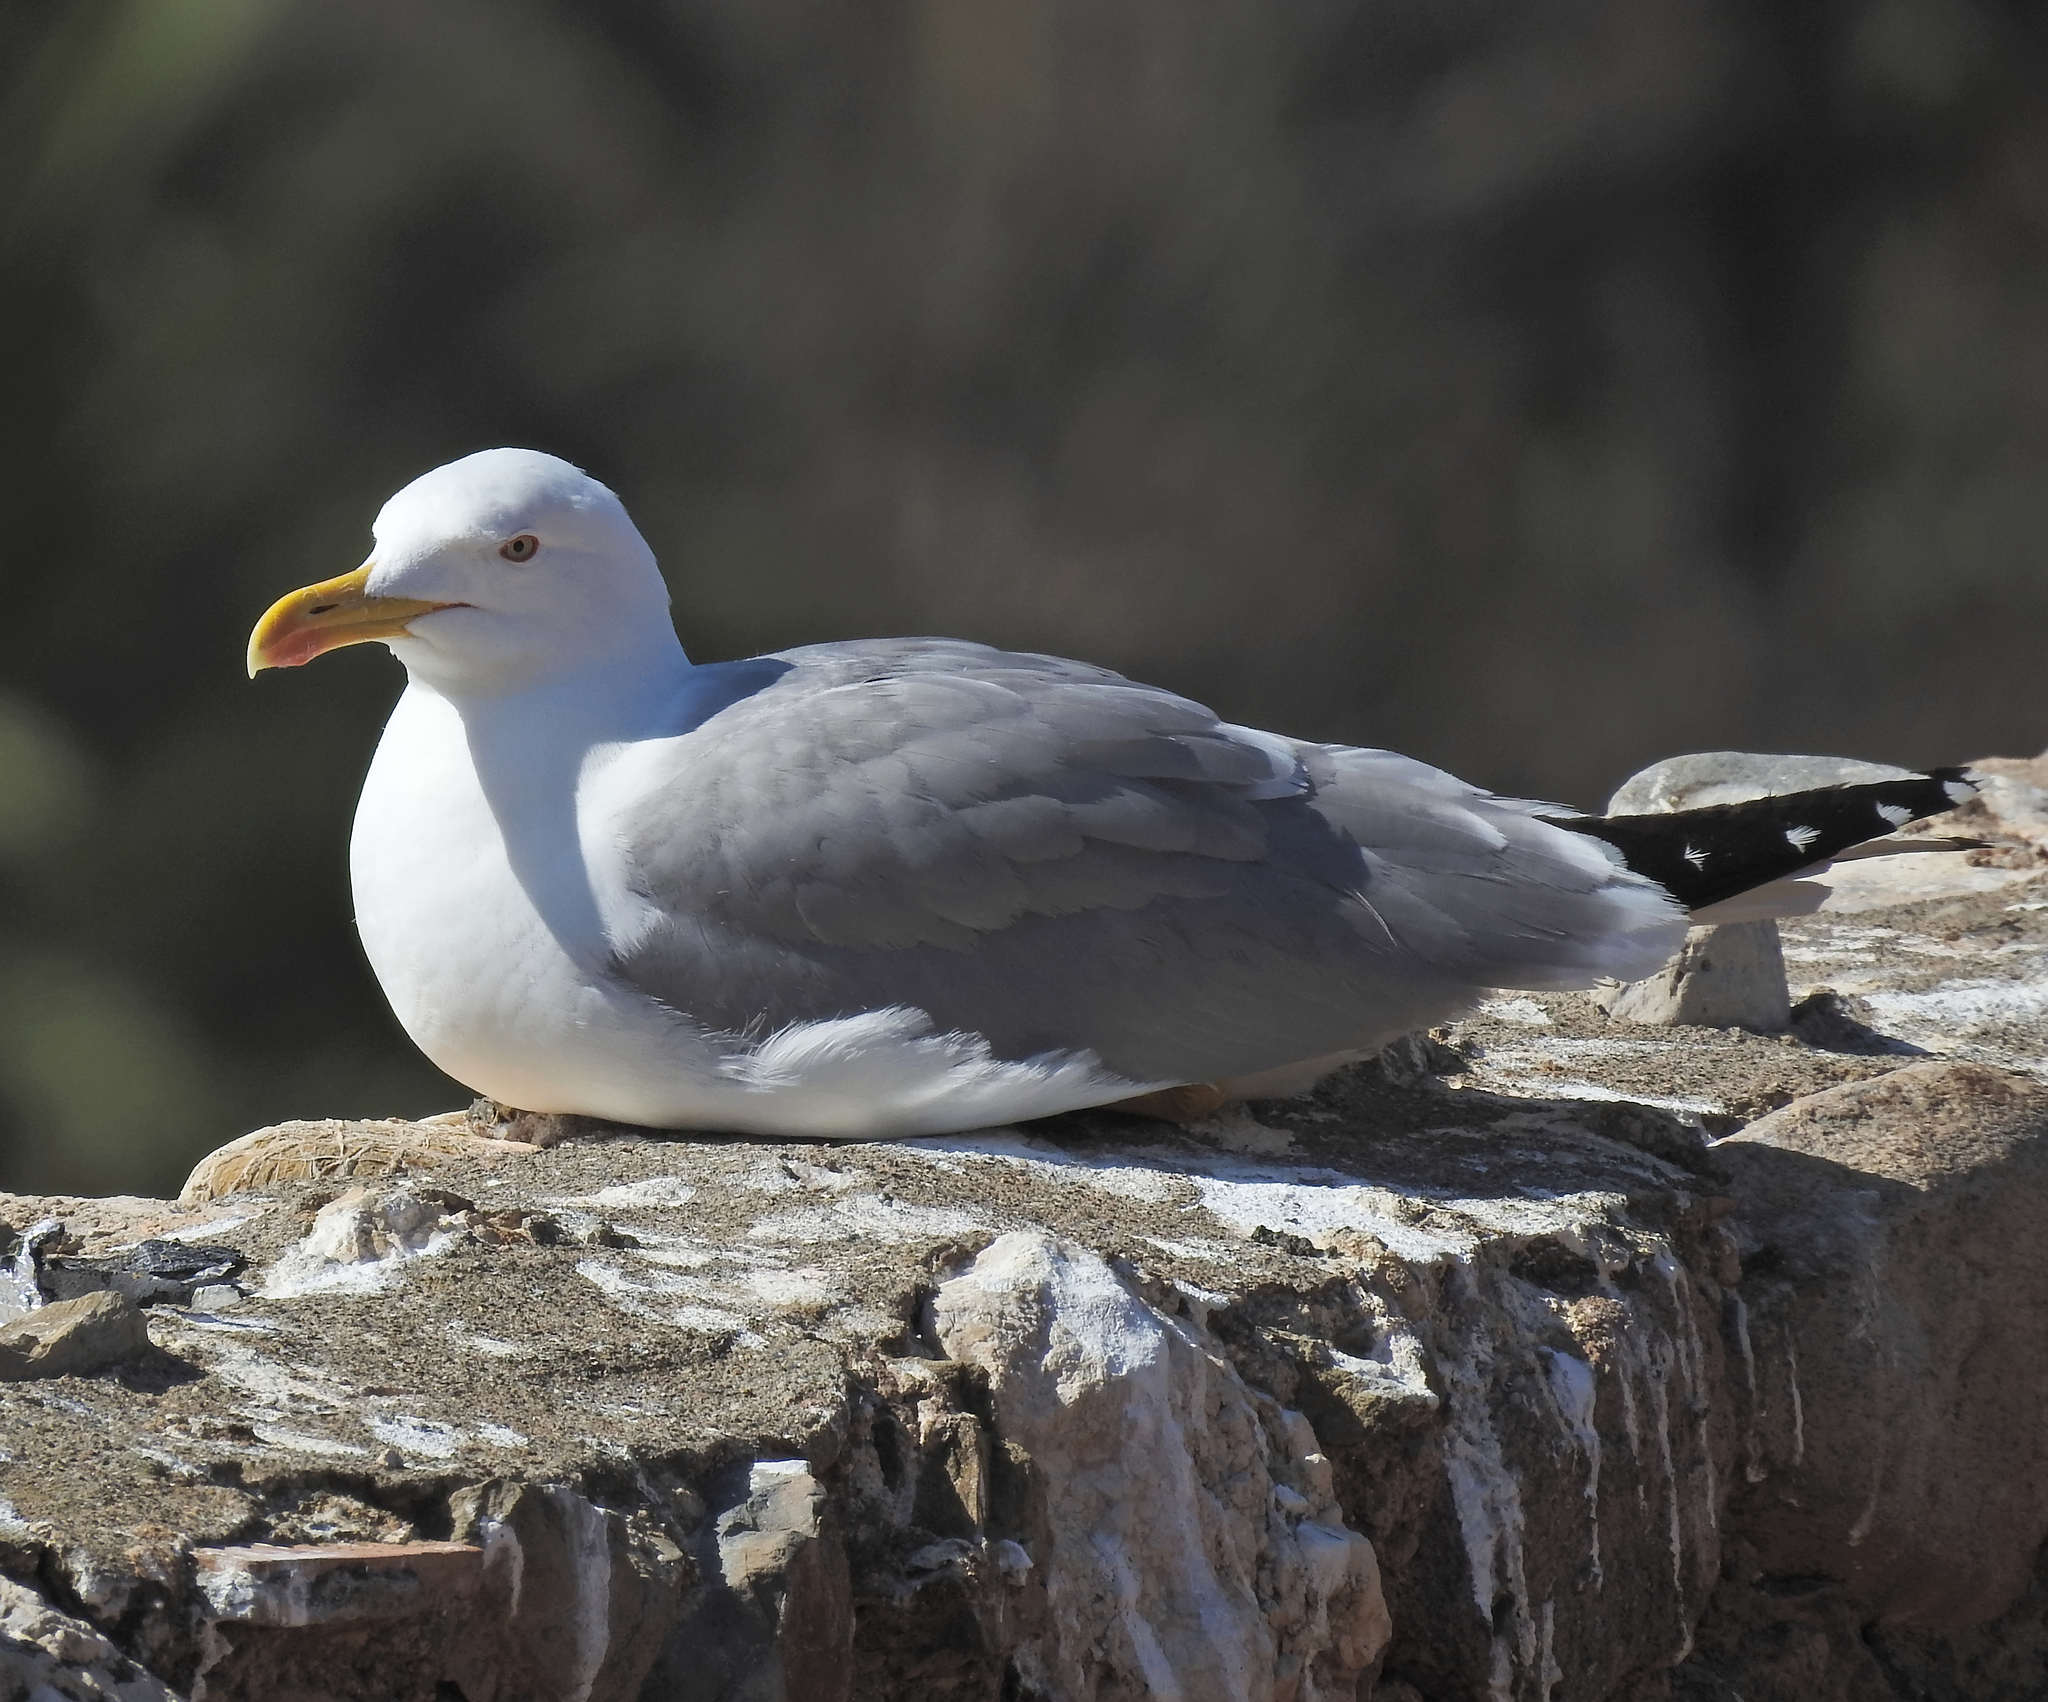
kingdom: Animalia
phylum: Chordata
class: Aves
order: Charadriiformes
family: Laridae
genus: Larus
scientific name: Larus michahellis
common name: Yellow-legged gull
